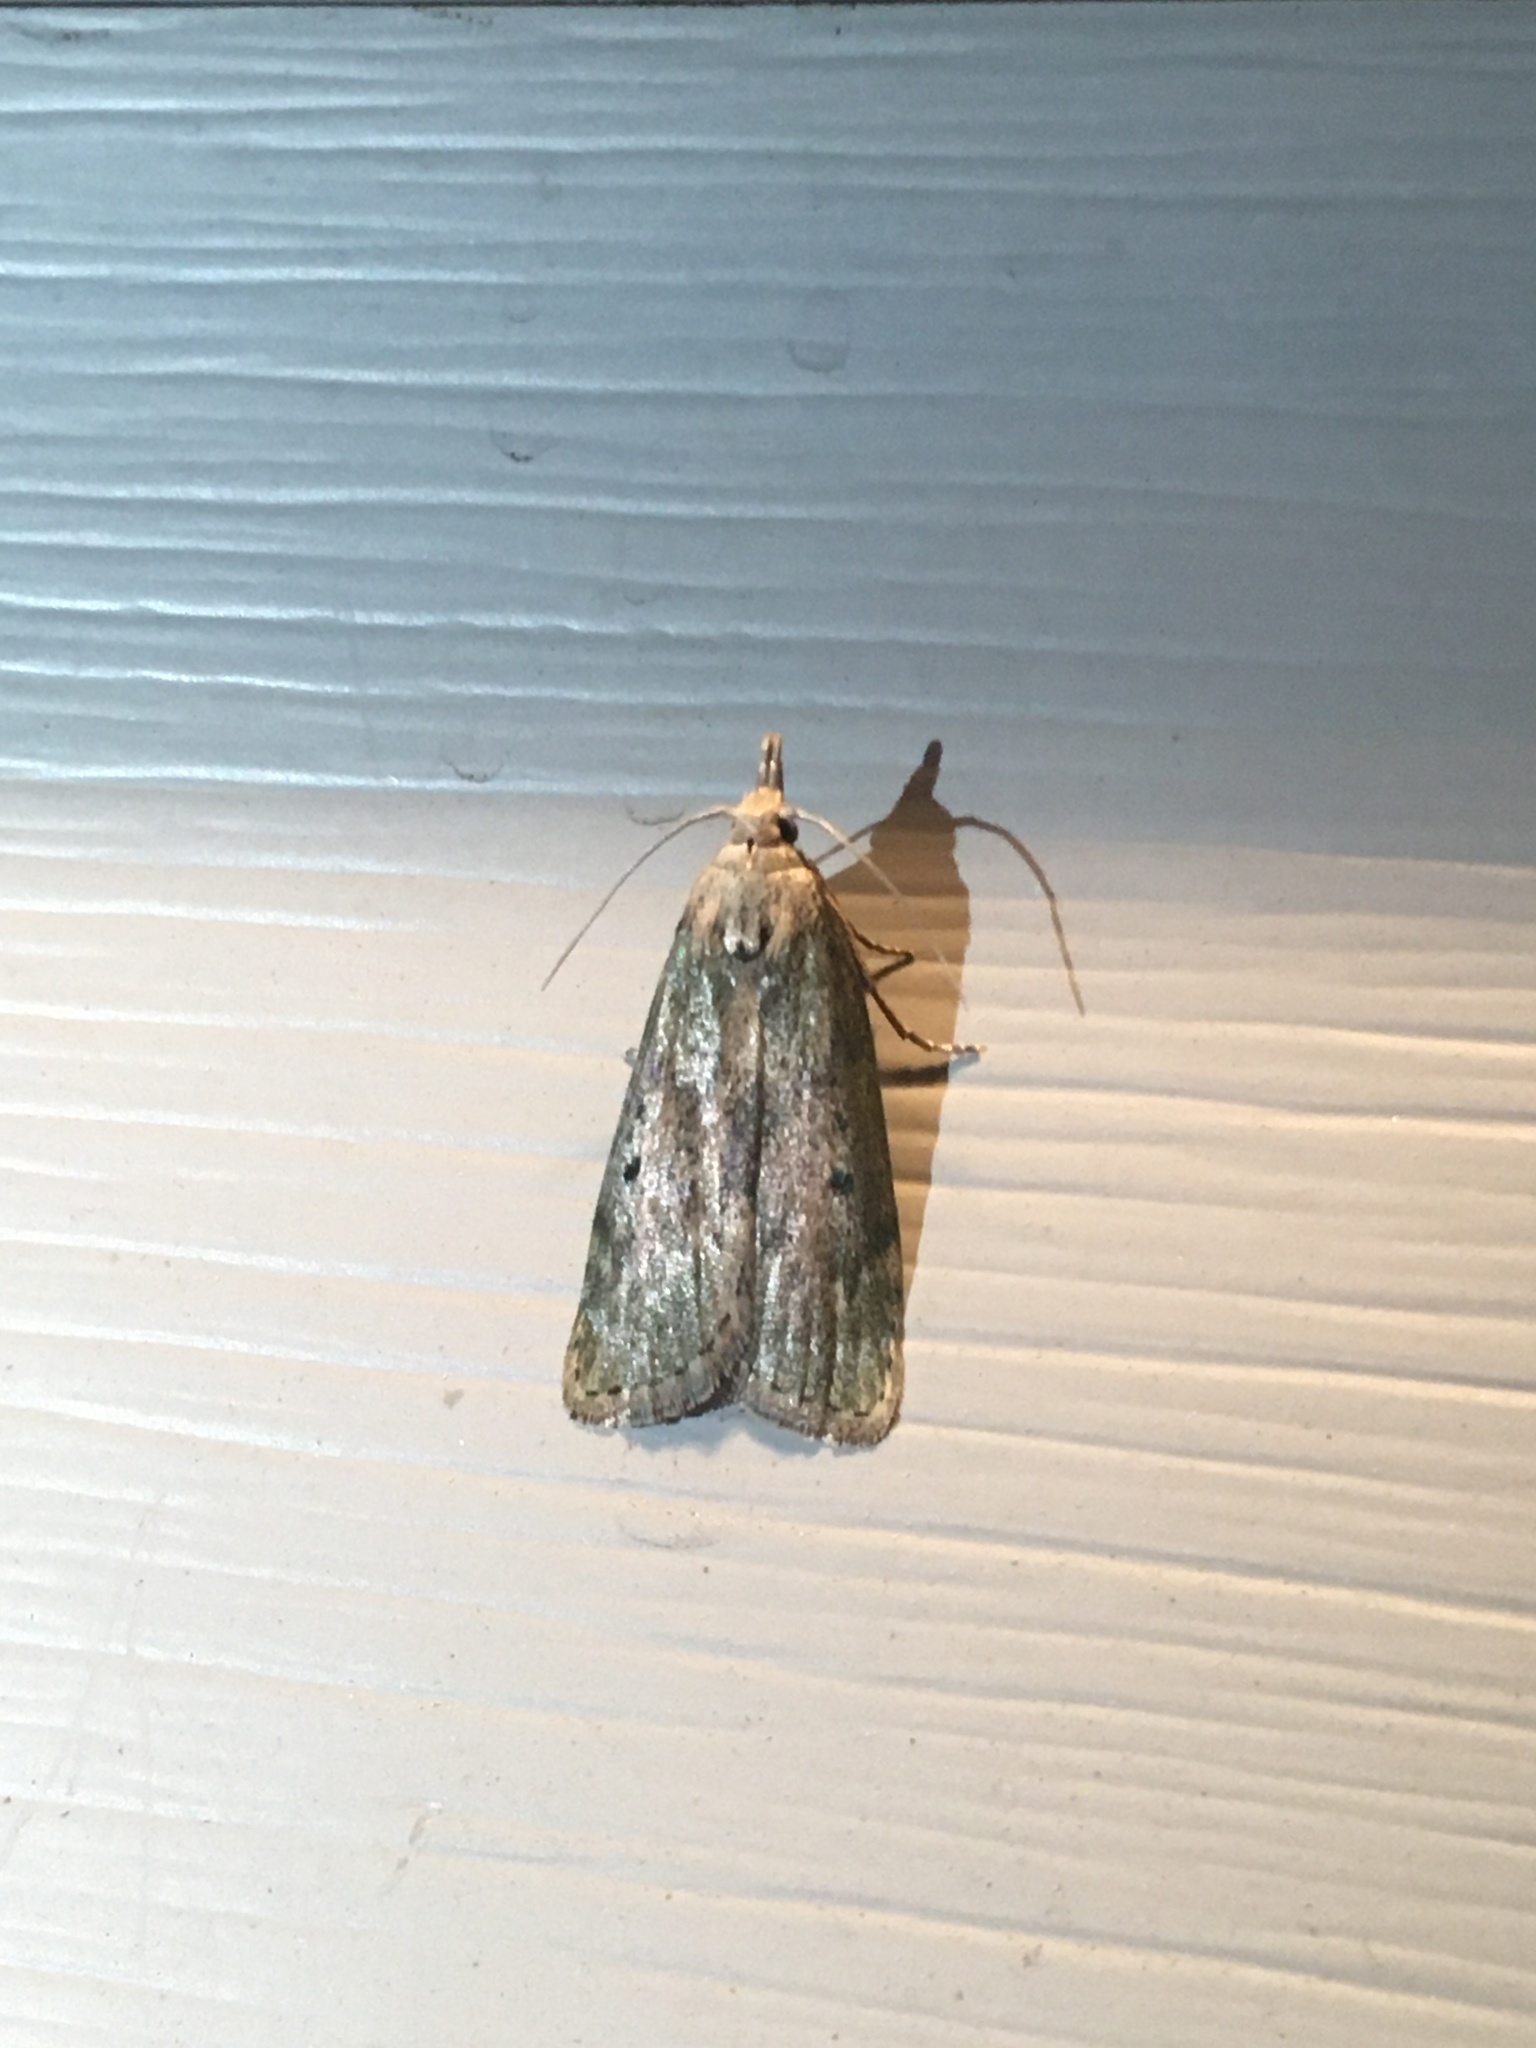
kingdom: Animalia
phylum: Arthropoda
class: Insecta
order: Lepidoptera
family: Pyralidae
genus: Aphomia
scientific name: Aphomia sociella
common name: Bee moth
